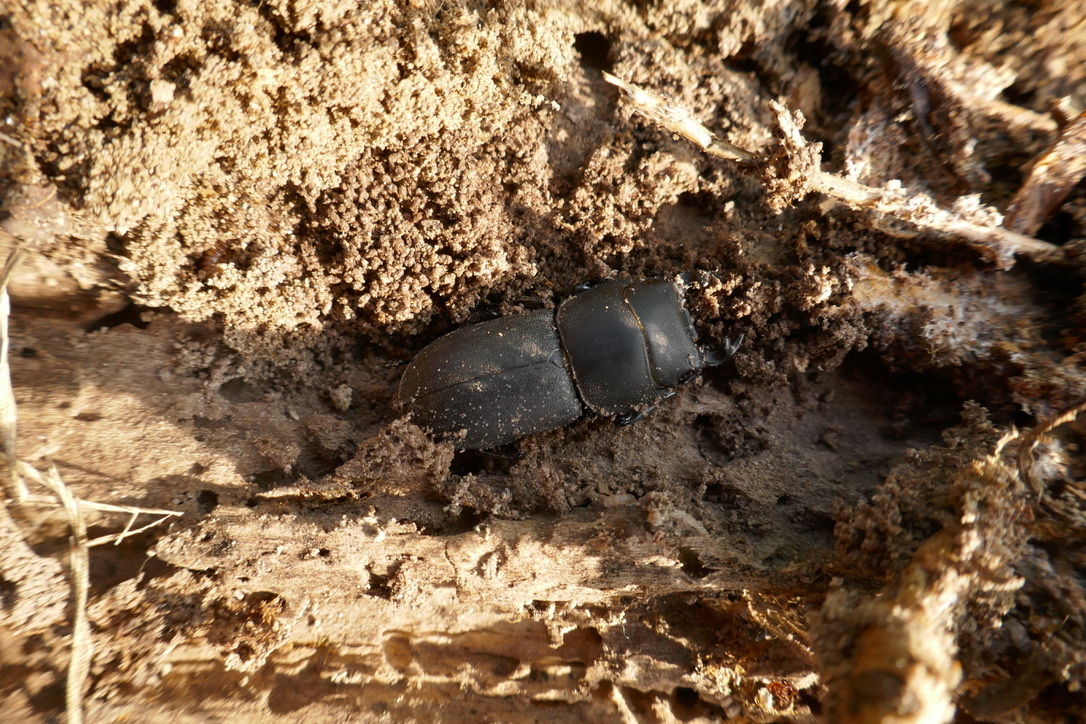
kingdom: Animalia
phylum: Arthropoda
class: Insecta
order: Coleoptera
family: Lucanidae
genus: Dorcus
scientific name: Dorcus parallelipipedus
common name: Lesser stag beetle
